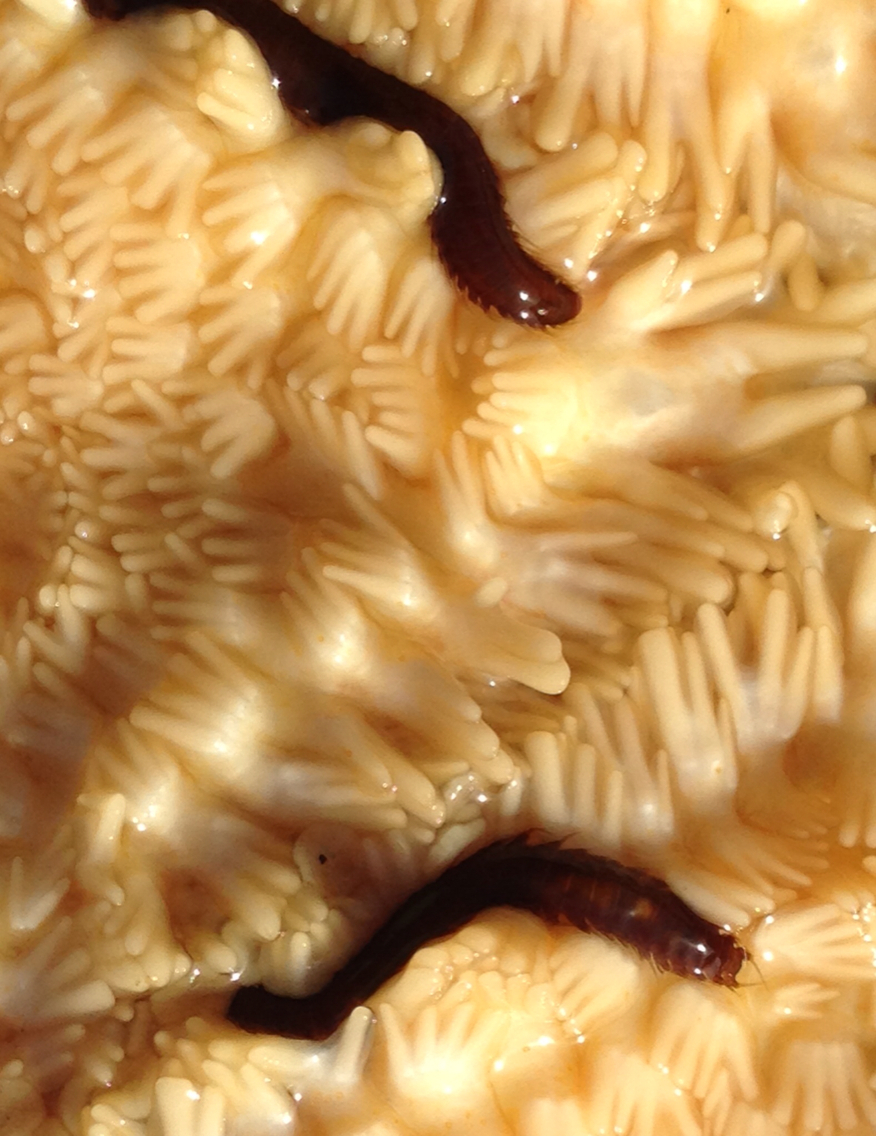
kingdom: Animalia
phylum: Annelida
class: Polychaeta
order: Phyllodocida
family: Hesionidae
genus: Oxydromus
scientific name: Oxydromus pugettensis
